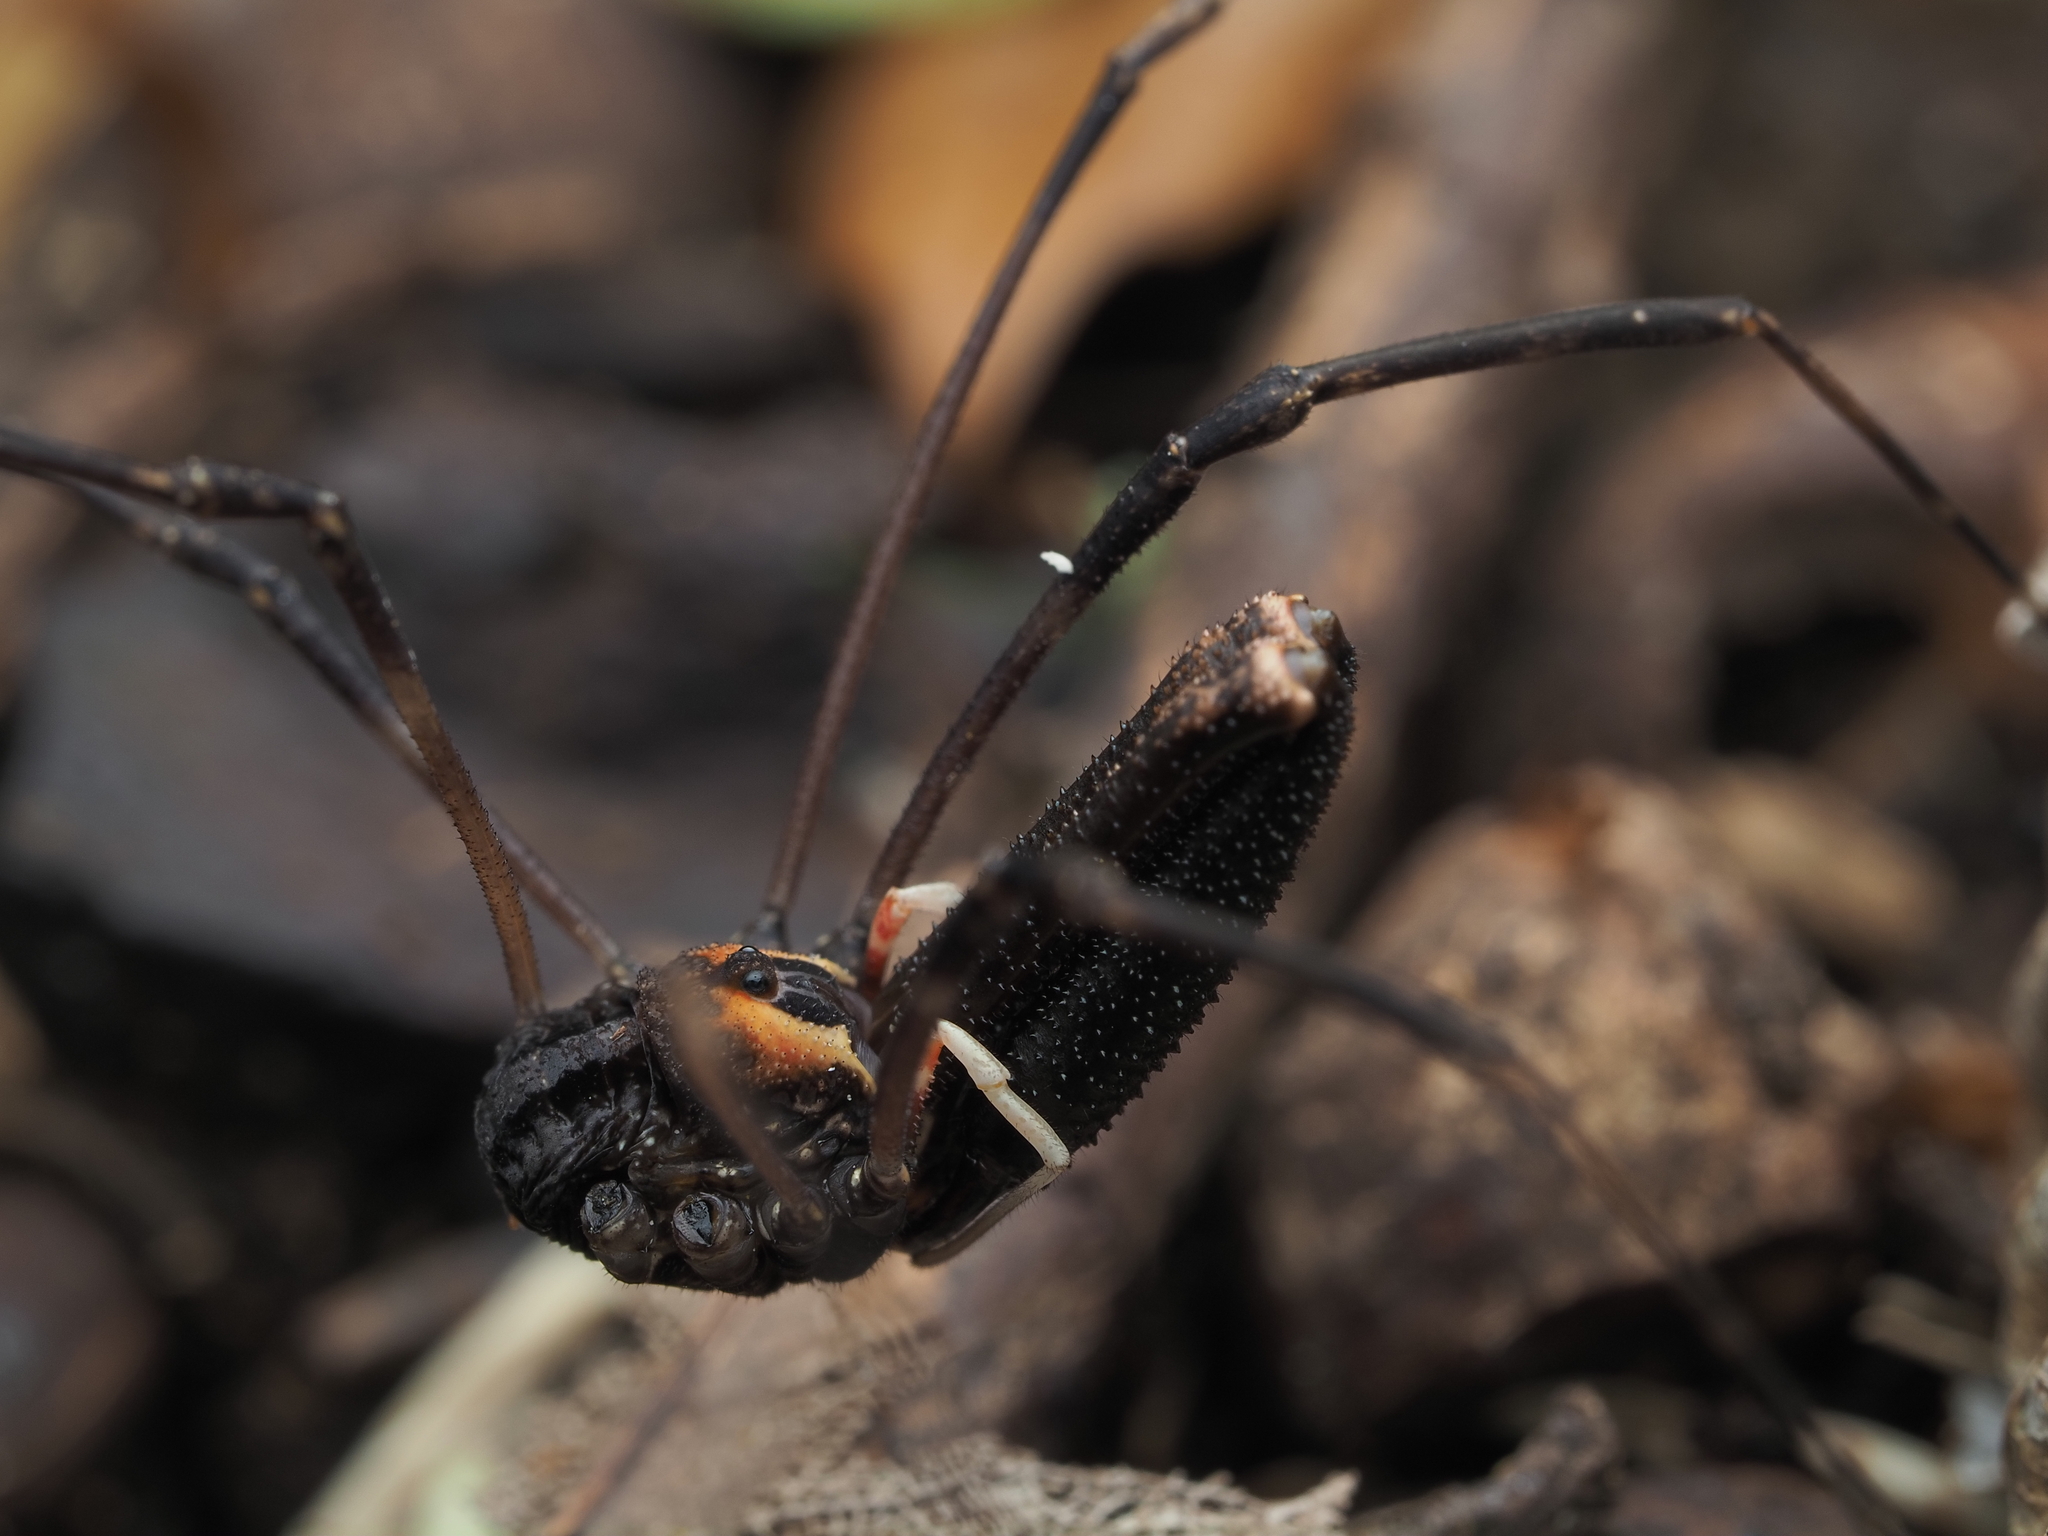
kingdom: Animalia
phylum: Arthropoda
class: Arachnida
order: Opiliones
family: Neopilionidae
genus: Forsteropsalis
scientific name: Forsteropsalis inconstans
